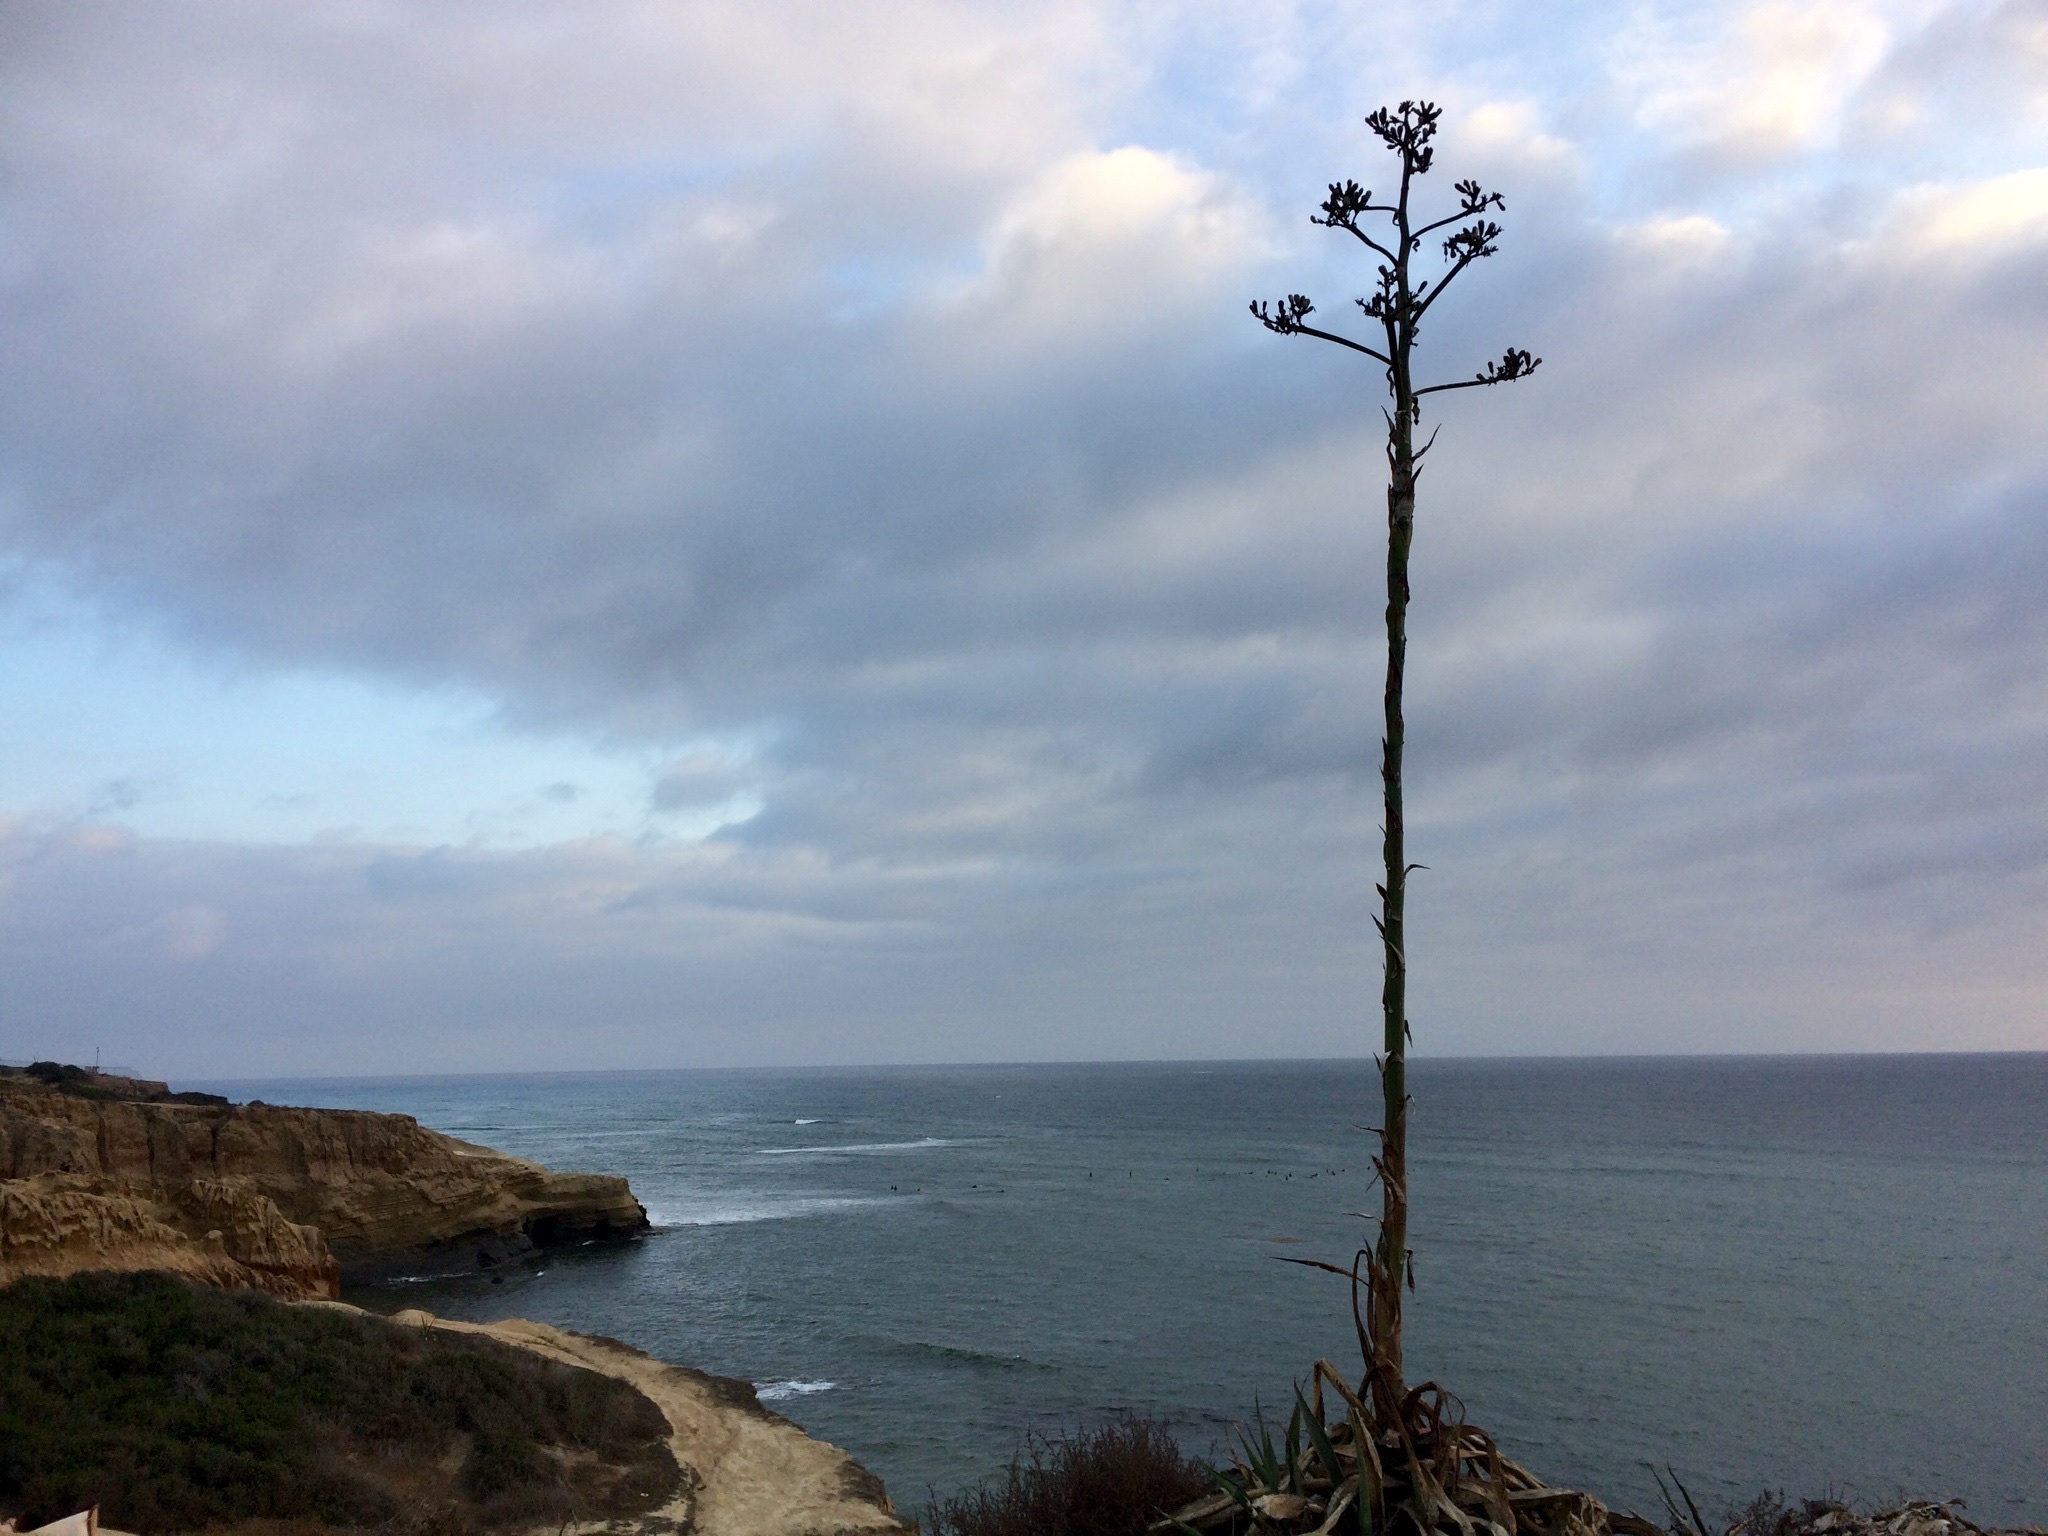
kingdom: Plantae
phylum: Tracheophyta
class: Liliopsida
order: Asparagales
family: Asparagaceae
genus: Agave
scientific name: Agave americana
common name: Centuryplant
